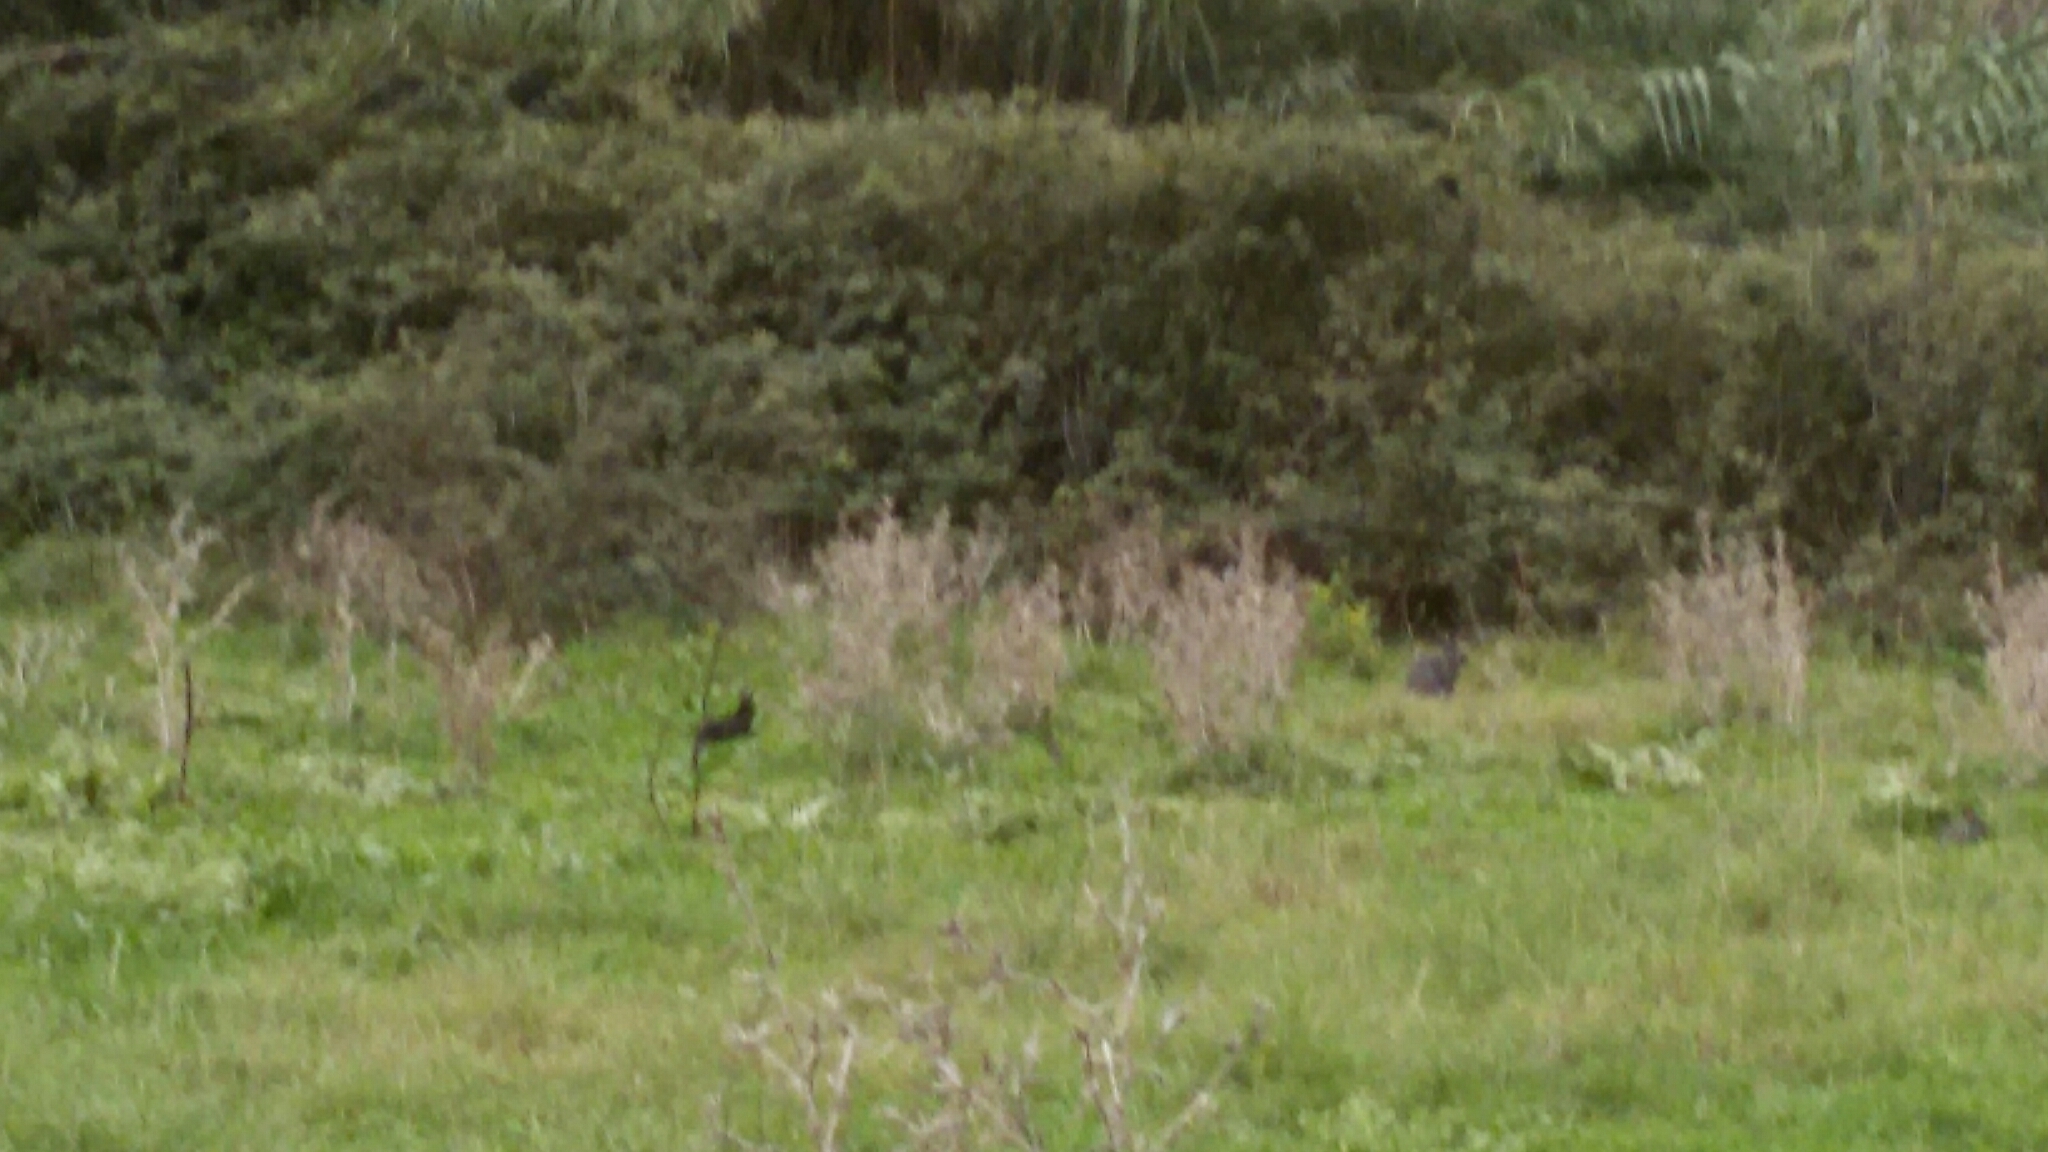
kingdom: Animalia
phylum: Chordata
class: Mammalia
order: Lagomorpha
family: Leporidae
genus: Oryctolagus
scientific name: Oryctolagus cuniculus
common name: European rabbit
